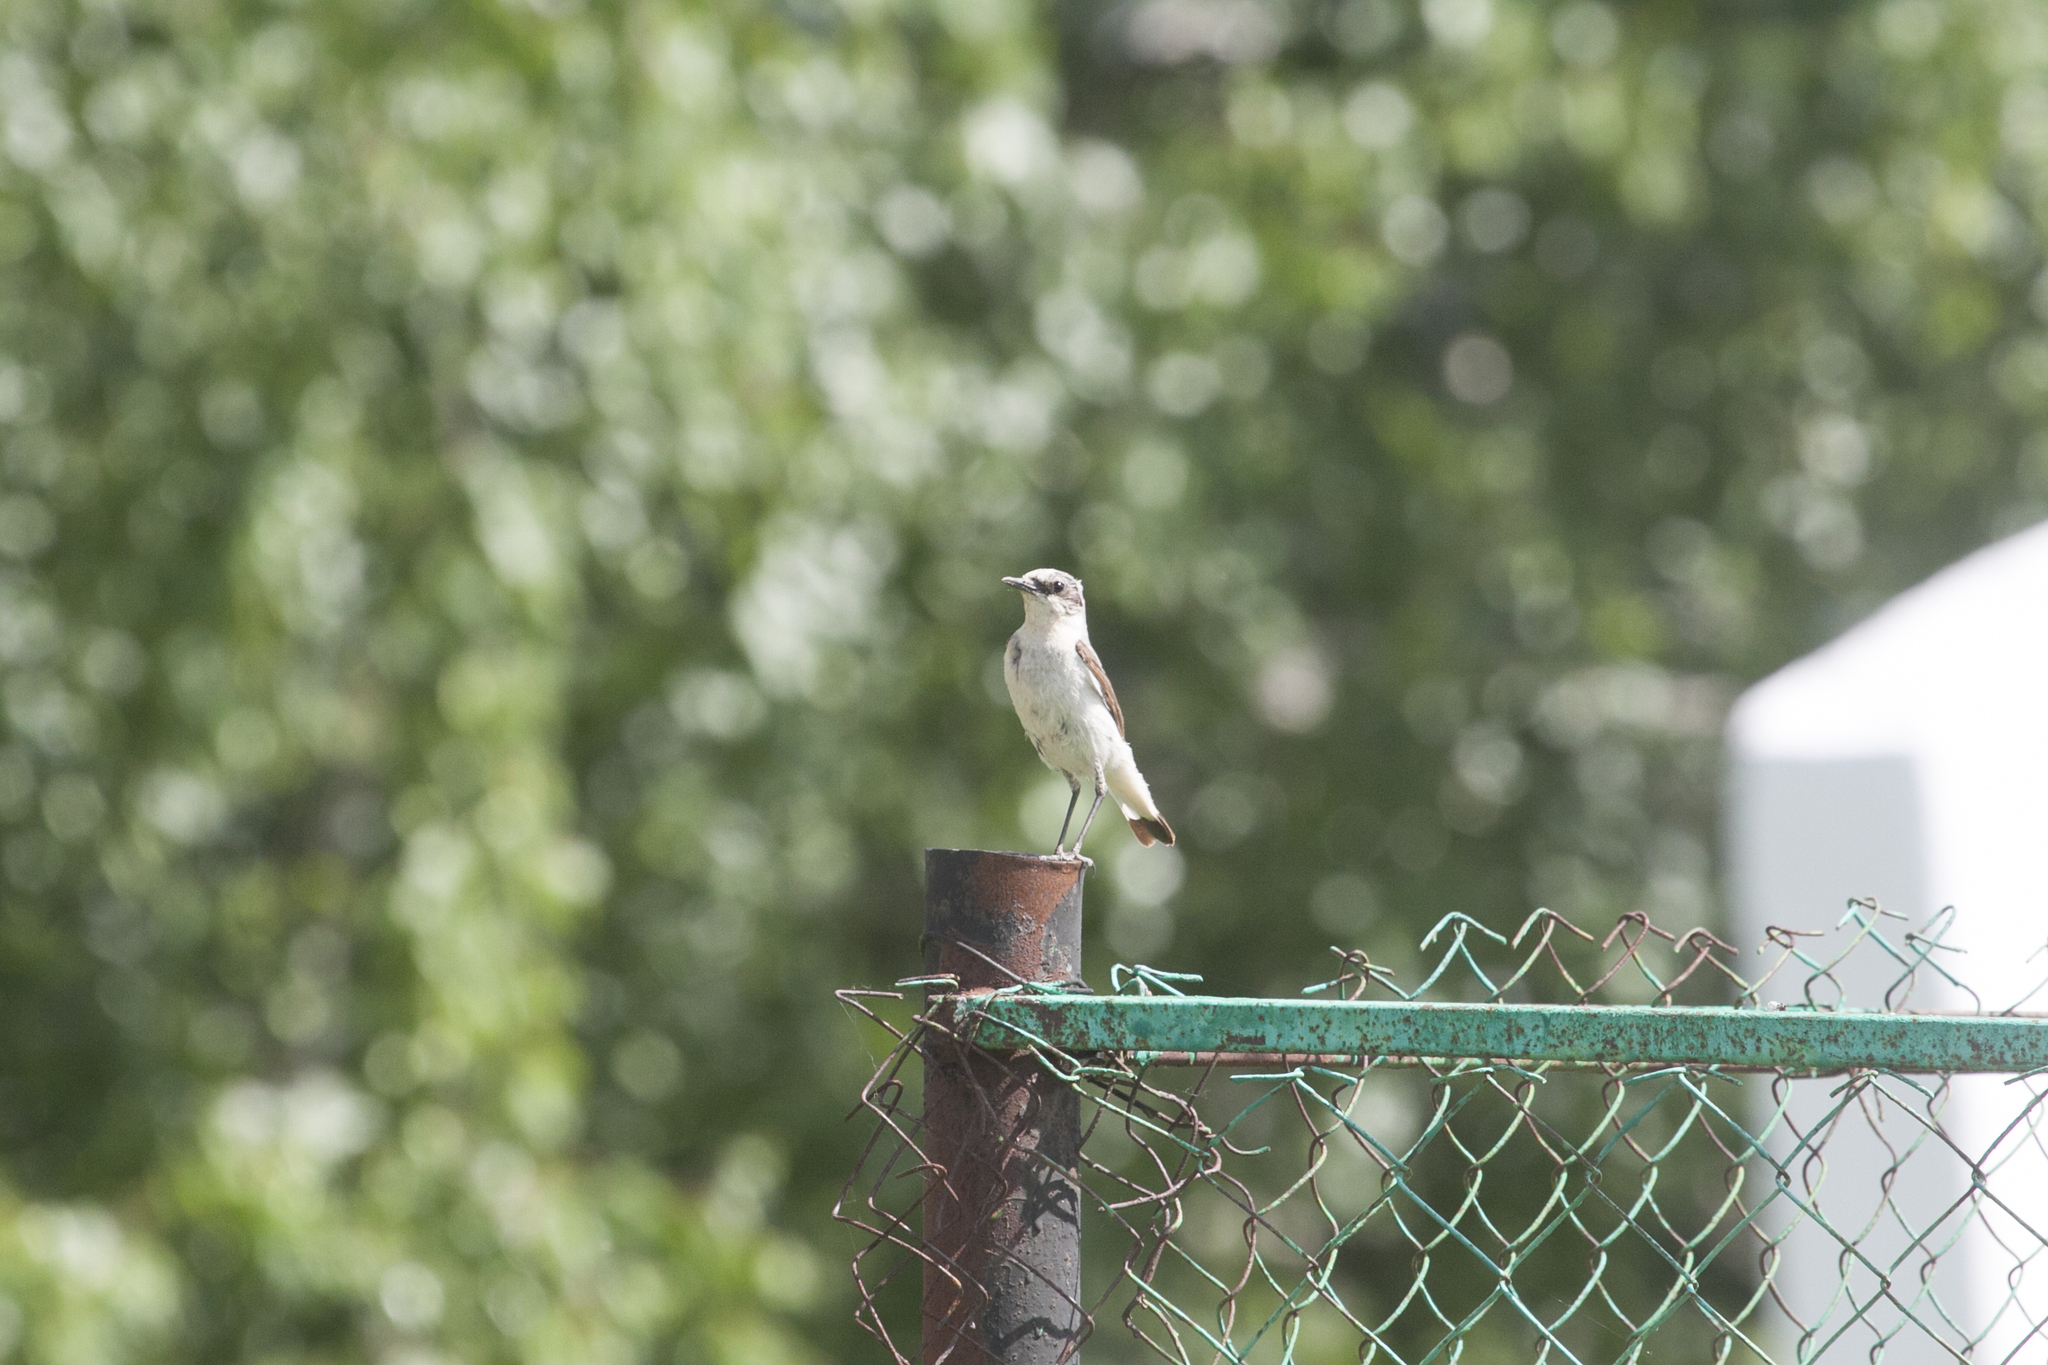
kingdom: Animalia
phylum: Chordata
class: Aves
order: Passeriformes
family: Muscicapidae
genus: Oenanthe
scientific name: Oenanthe oenanthe
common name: Northern wheatear
